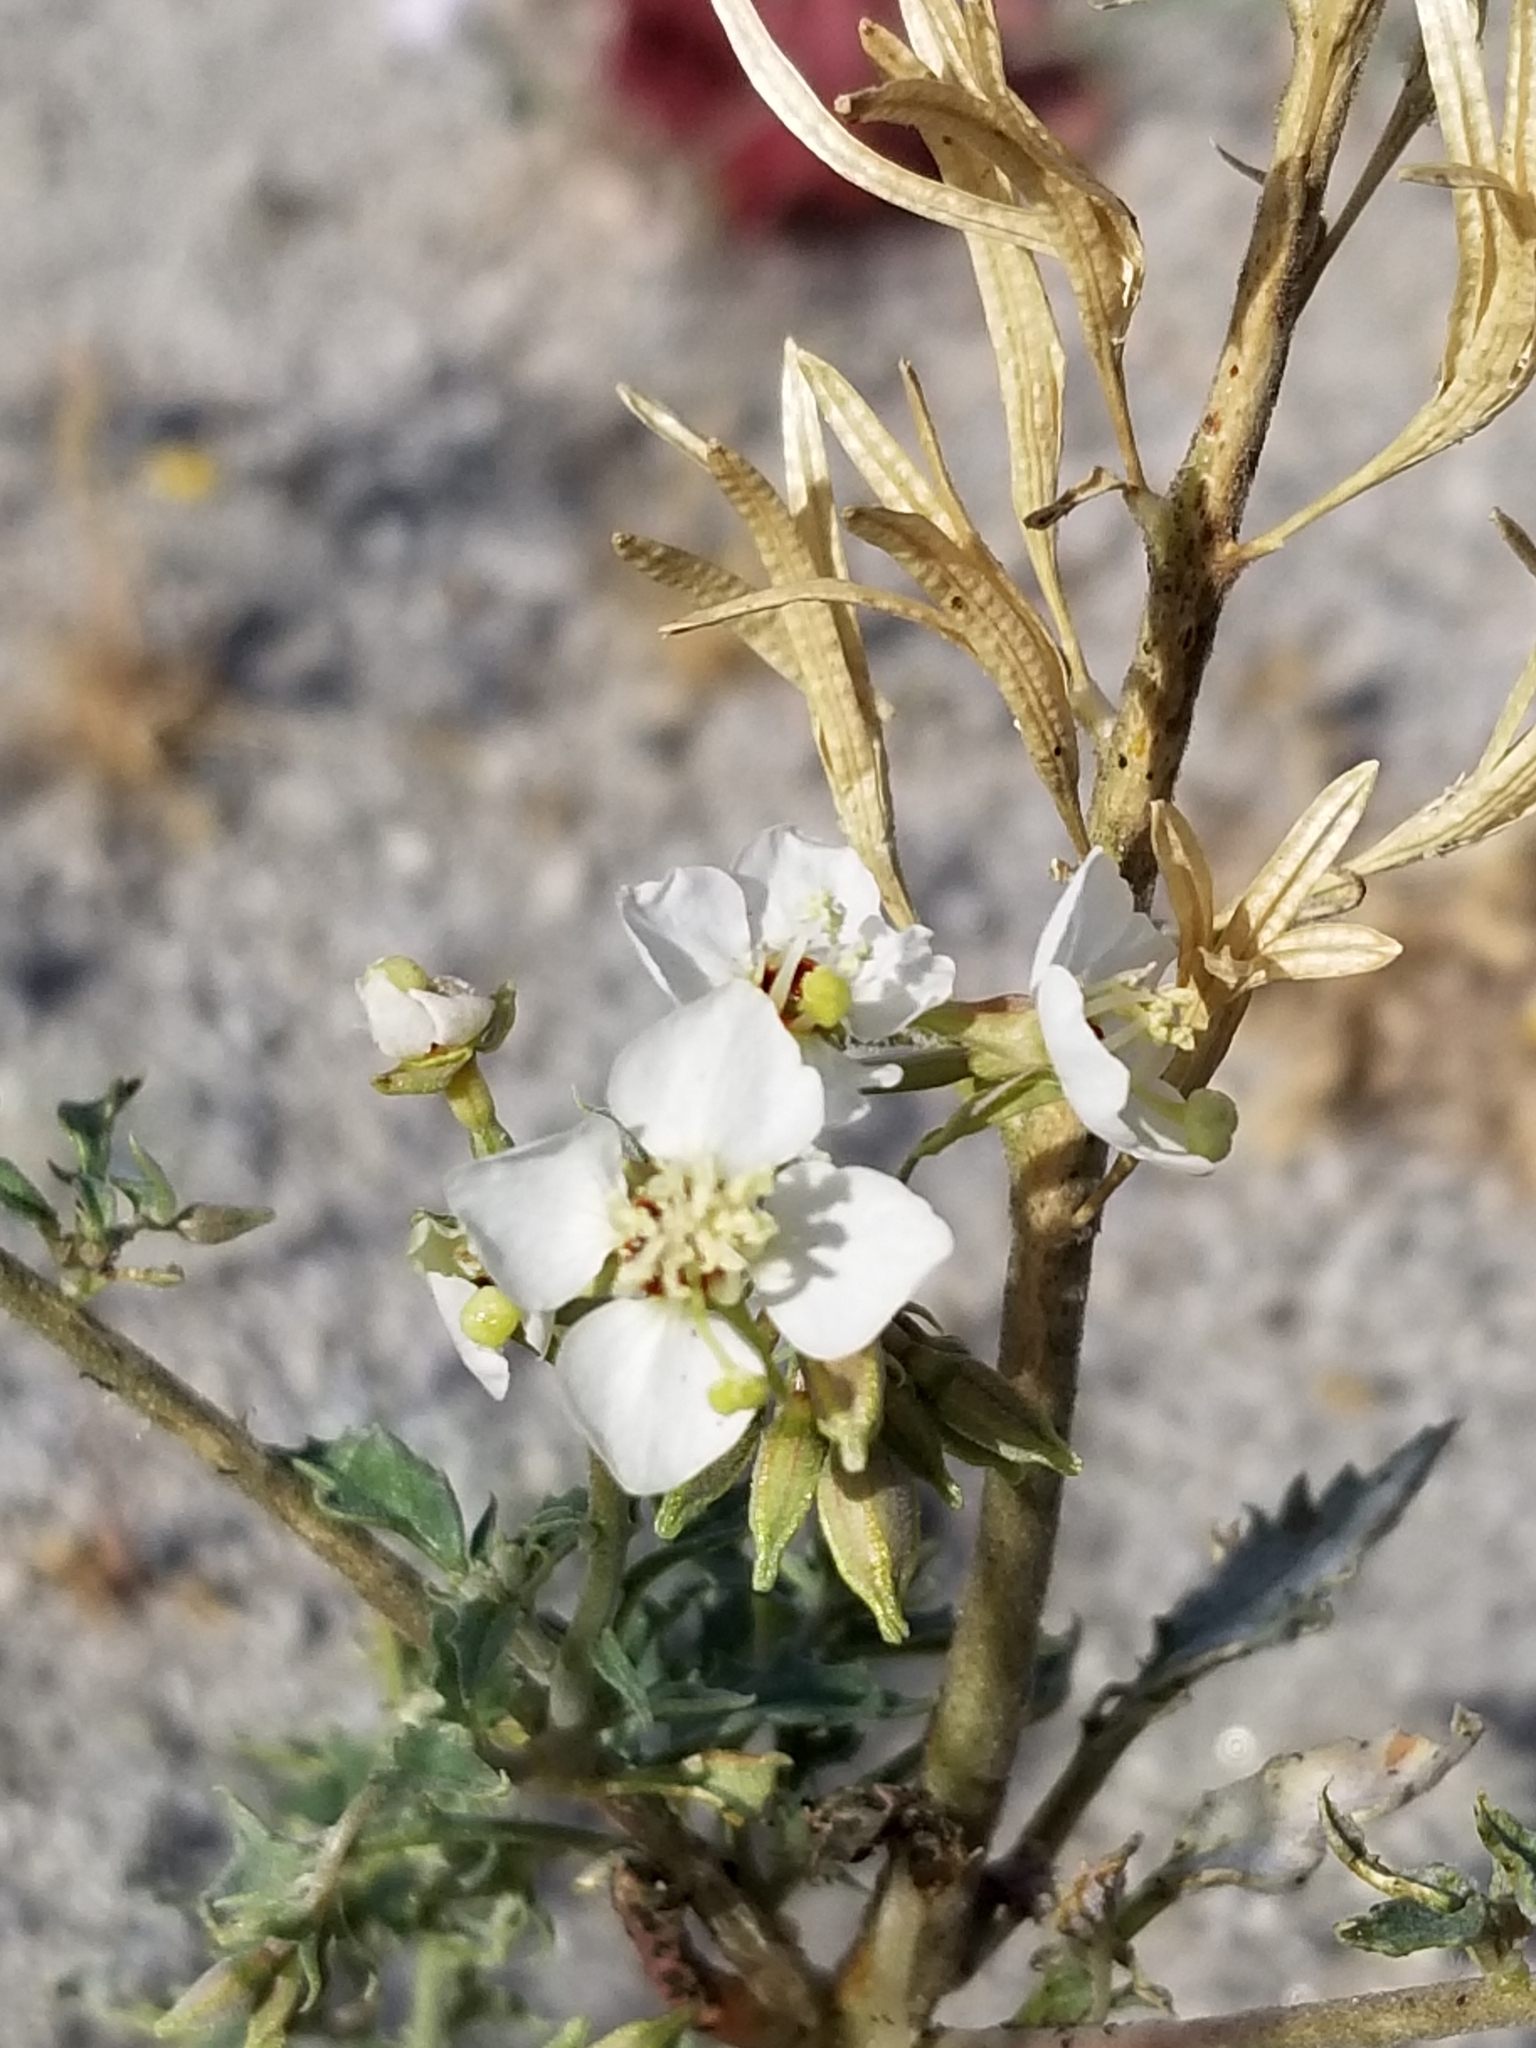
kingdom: Plantae
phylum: Tracheophyta
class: Magnoliopsida
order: Myrtales
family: Onagraceae
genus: Chylismia
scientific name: Chylismia claviformis
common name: Browneyes
